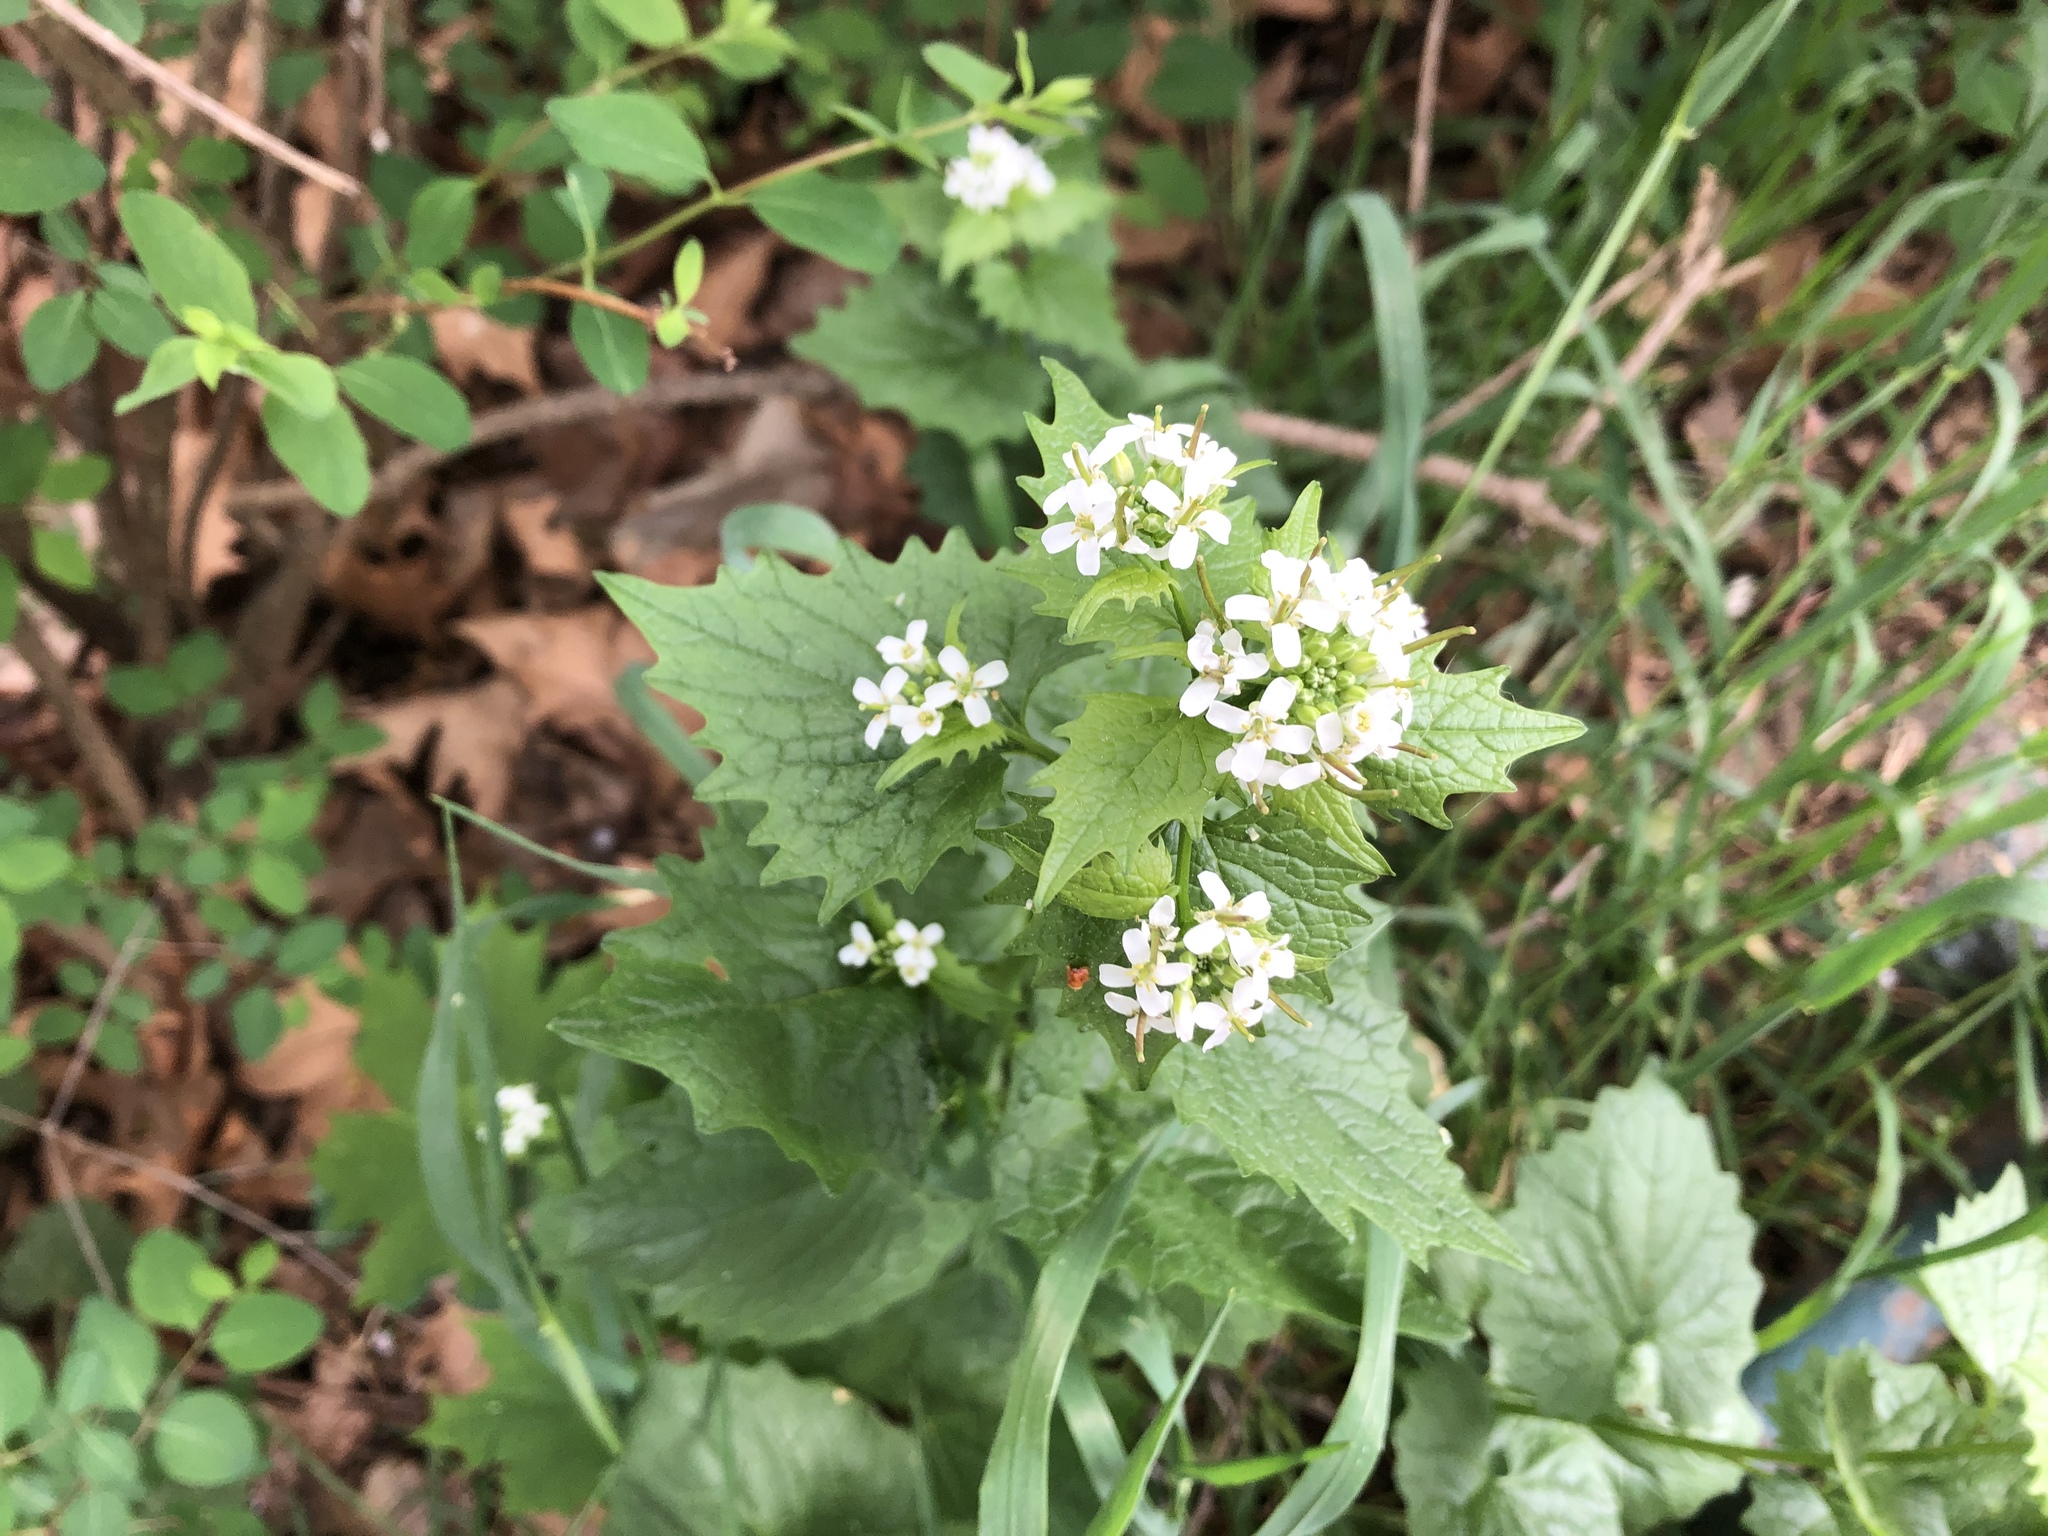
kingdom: Plantae
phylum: Tracheophyta
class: Magnoliopsida
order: Brassicales
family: Brassicaceae
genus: Alliaria
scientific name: Alliaria petiolata
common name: Garlic mustard
